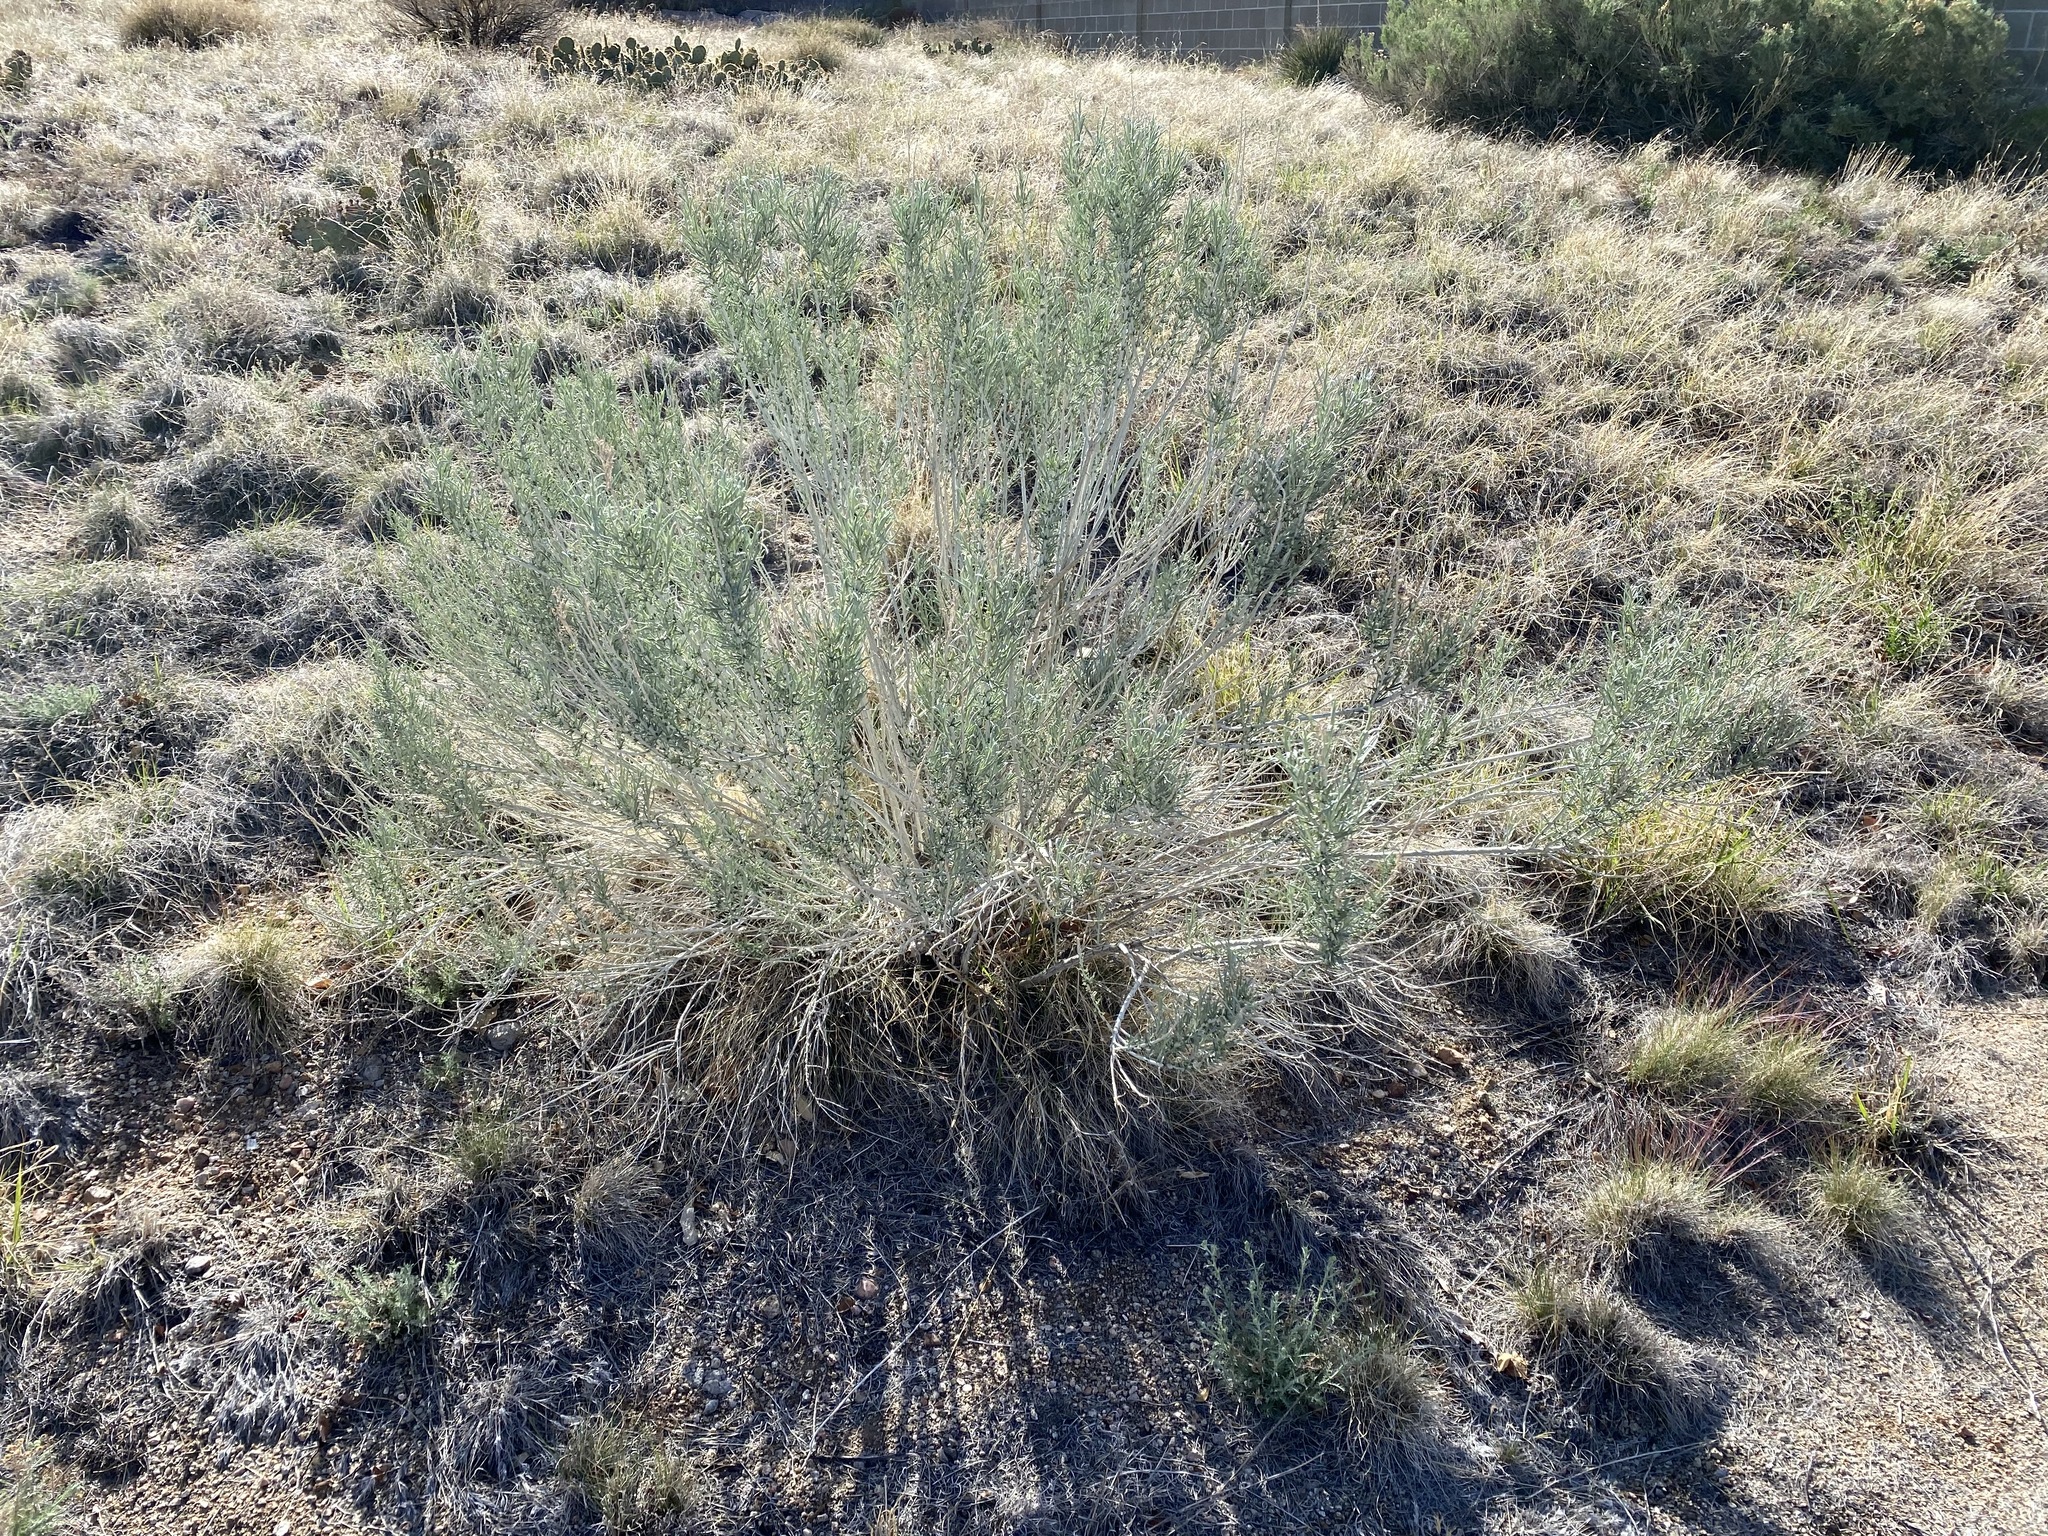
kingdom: Plantae
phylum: Tracheophyta
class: Magnoliopsida
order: Asterales
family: Asteraceae
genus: Ericameria
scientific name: Ericameria nauseosa
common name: Rubber rabbitbrush
